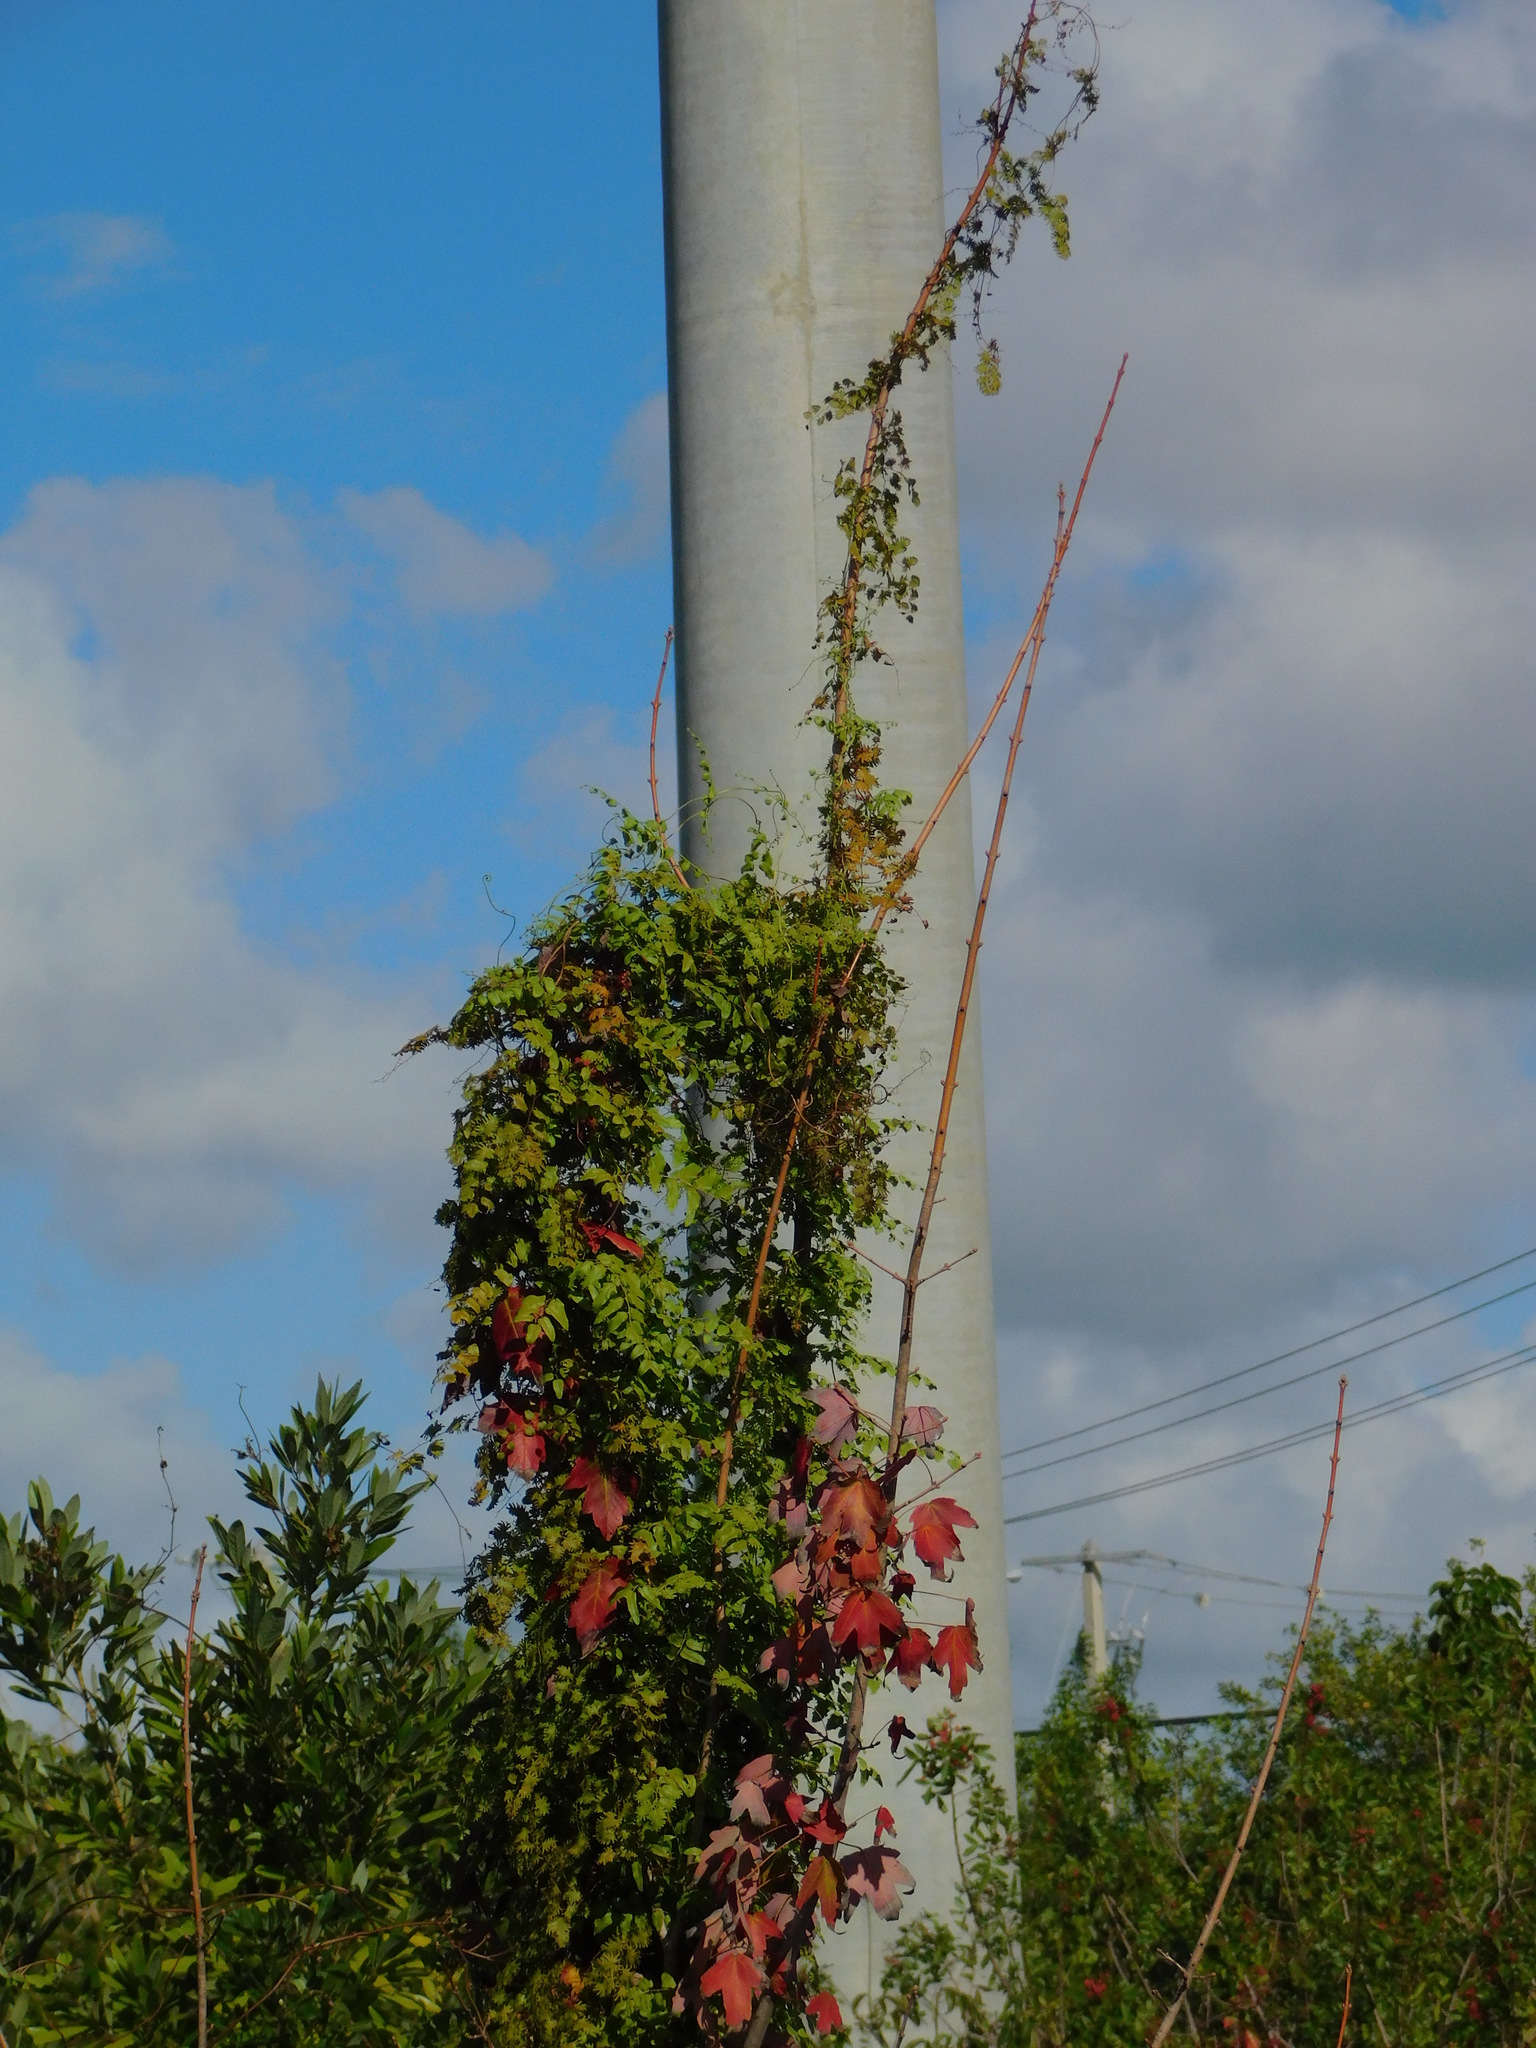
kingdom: Plantae
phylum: Tracheophyta
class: Polypodiopsida
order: Schizaeales
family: Lygodiaceae
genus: Lygodium
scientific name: Lygodium microphyllum
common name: Small-leaf climbing fern
